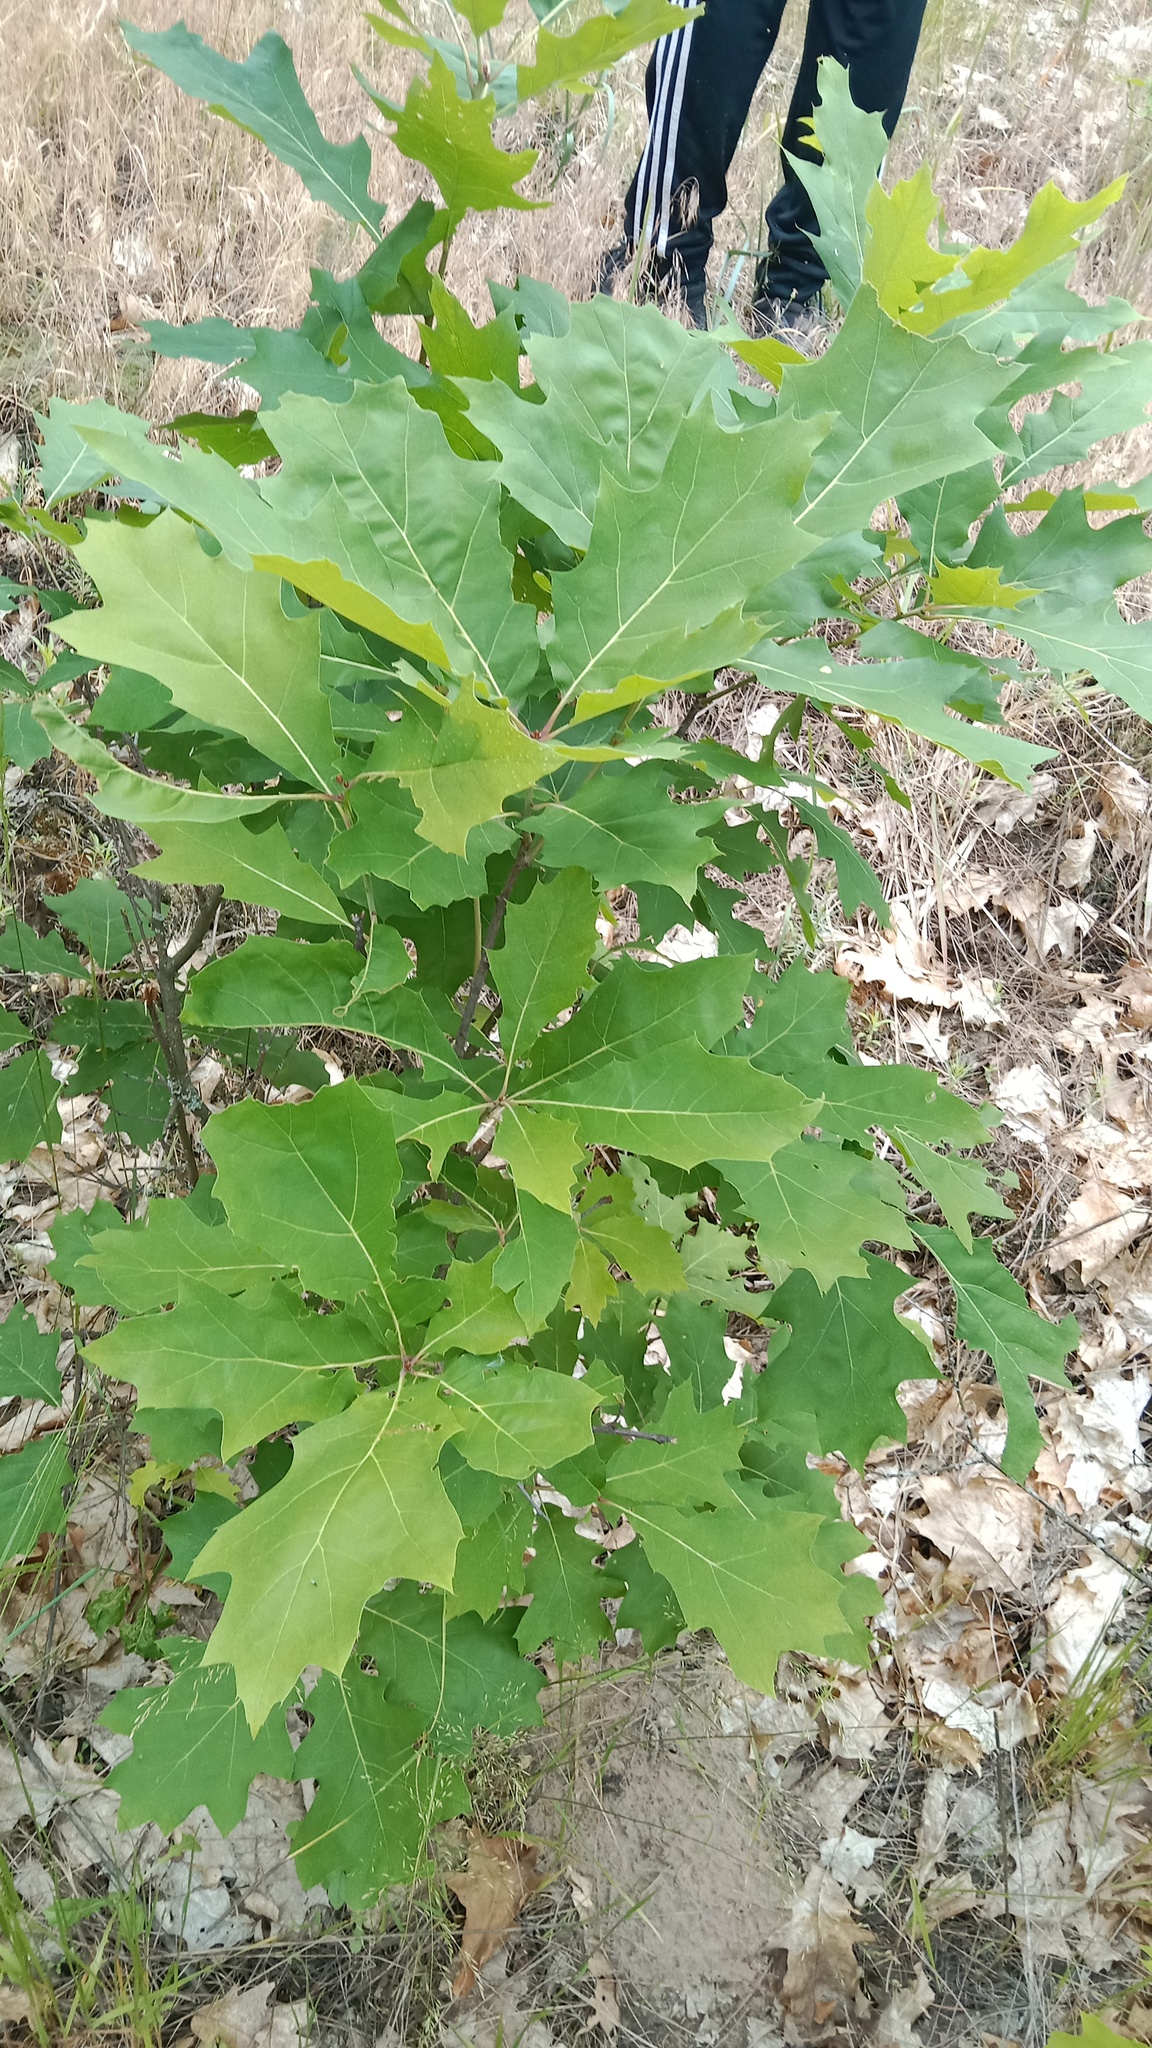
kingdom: Plantae
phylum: Tracheophyta
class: Magnoliopsida
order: Fagales
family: Fagaceae
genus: Quercus
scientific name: Quercus rubra
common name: Red oak
